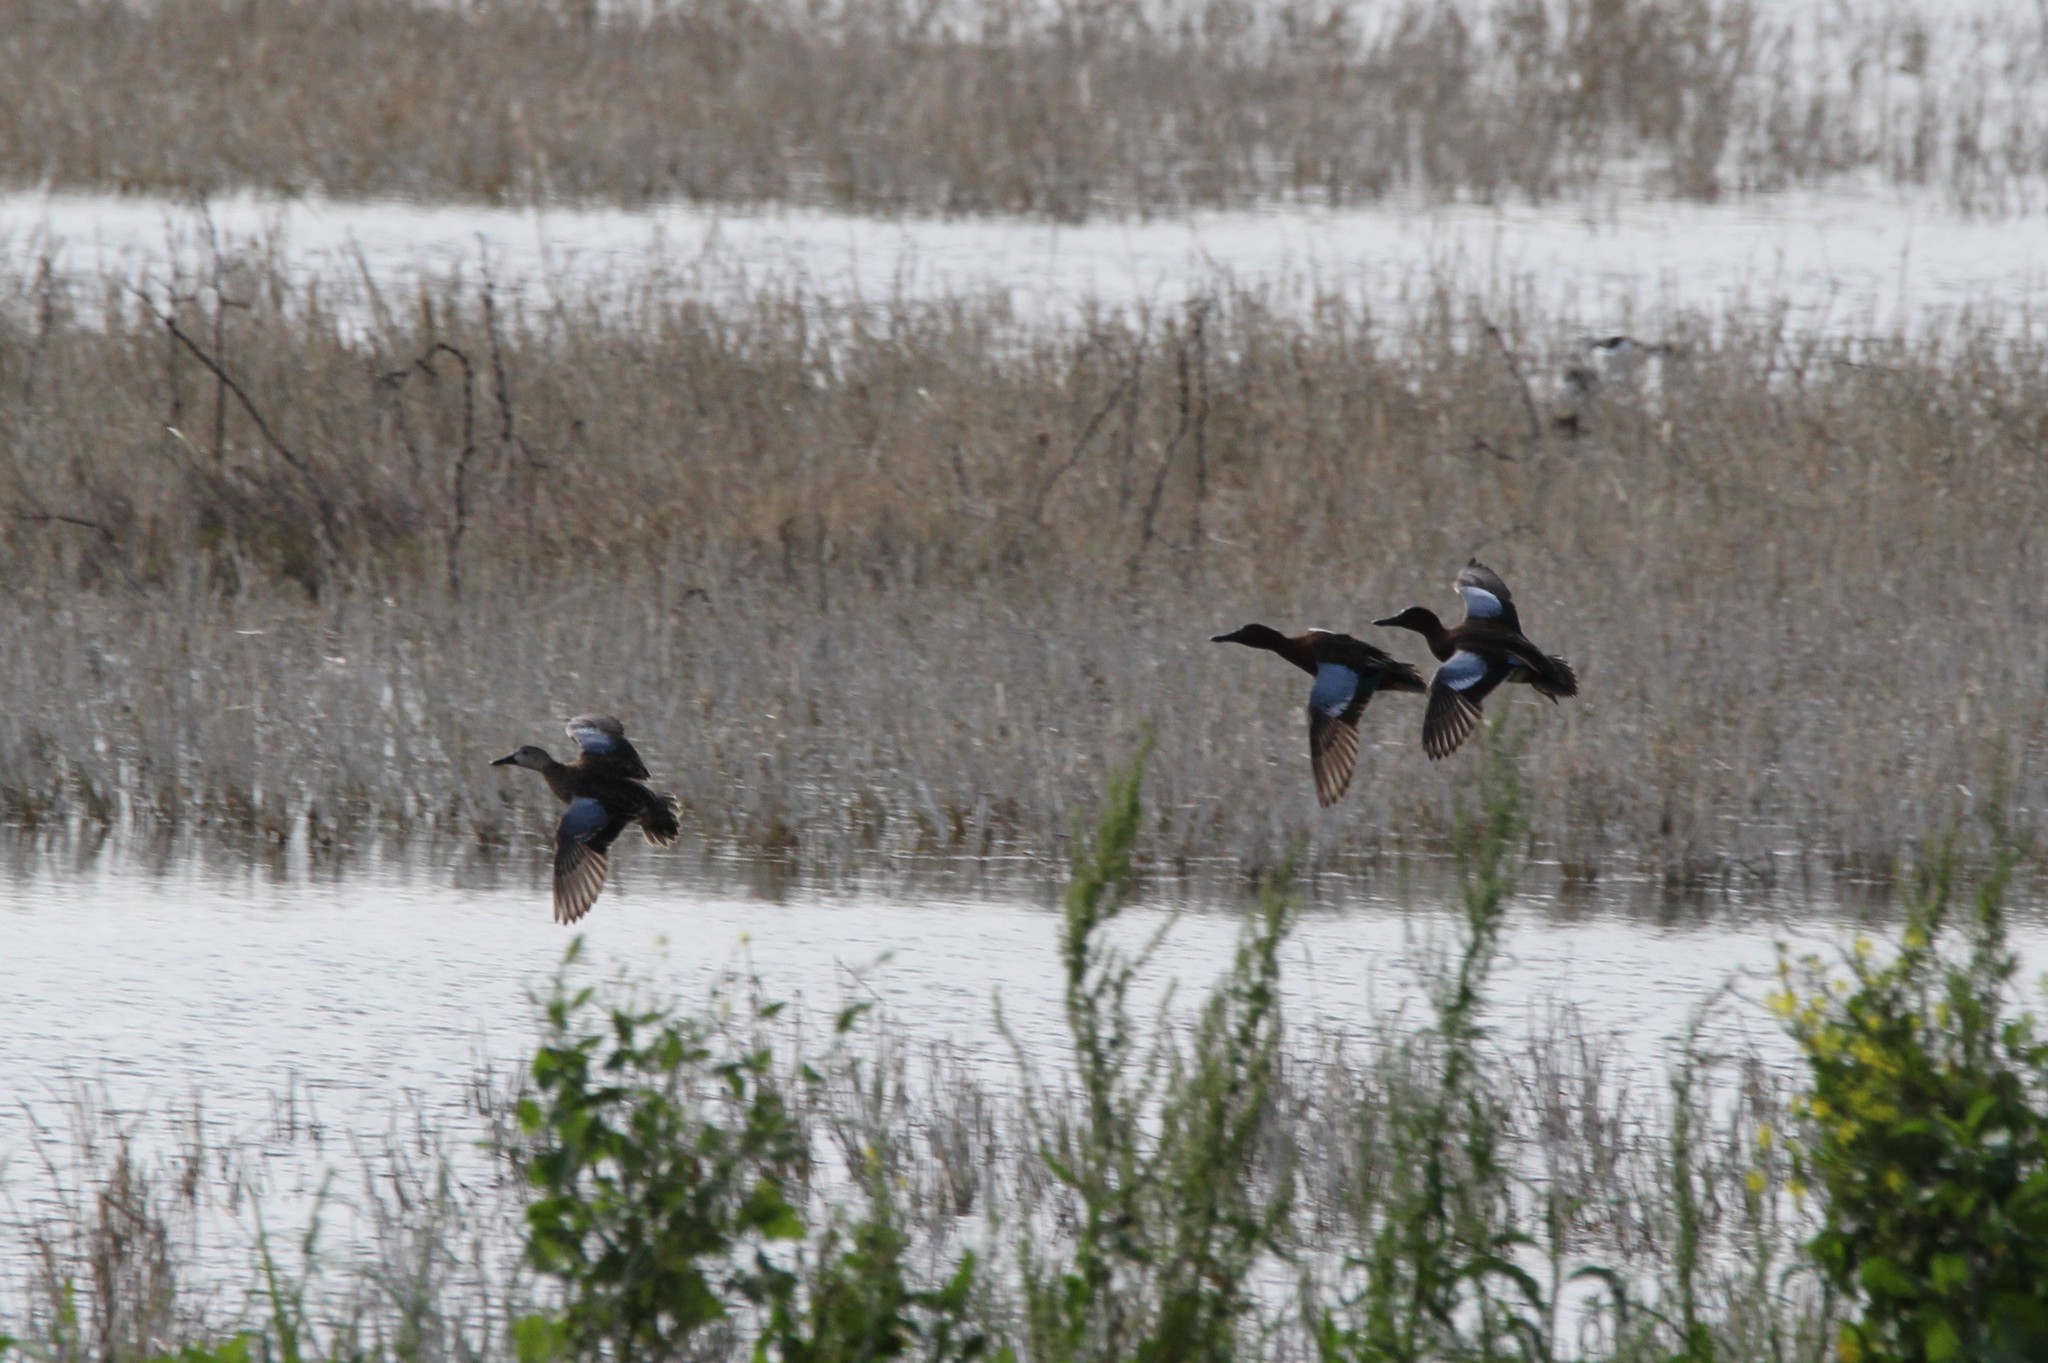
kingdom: Animalia
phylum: Chordata
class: Aves
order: Anseriformes
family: Anatidae
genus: Spatula
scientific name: Spatula discors
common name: Blue-winged teal
